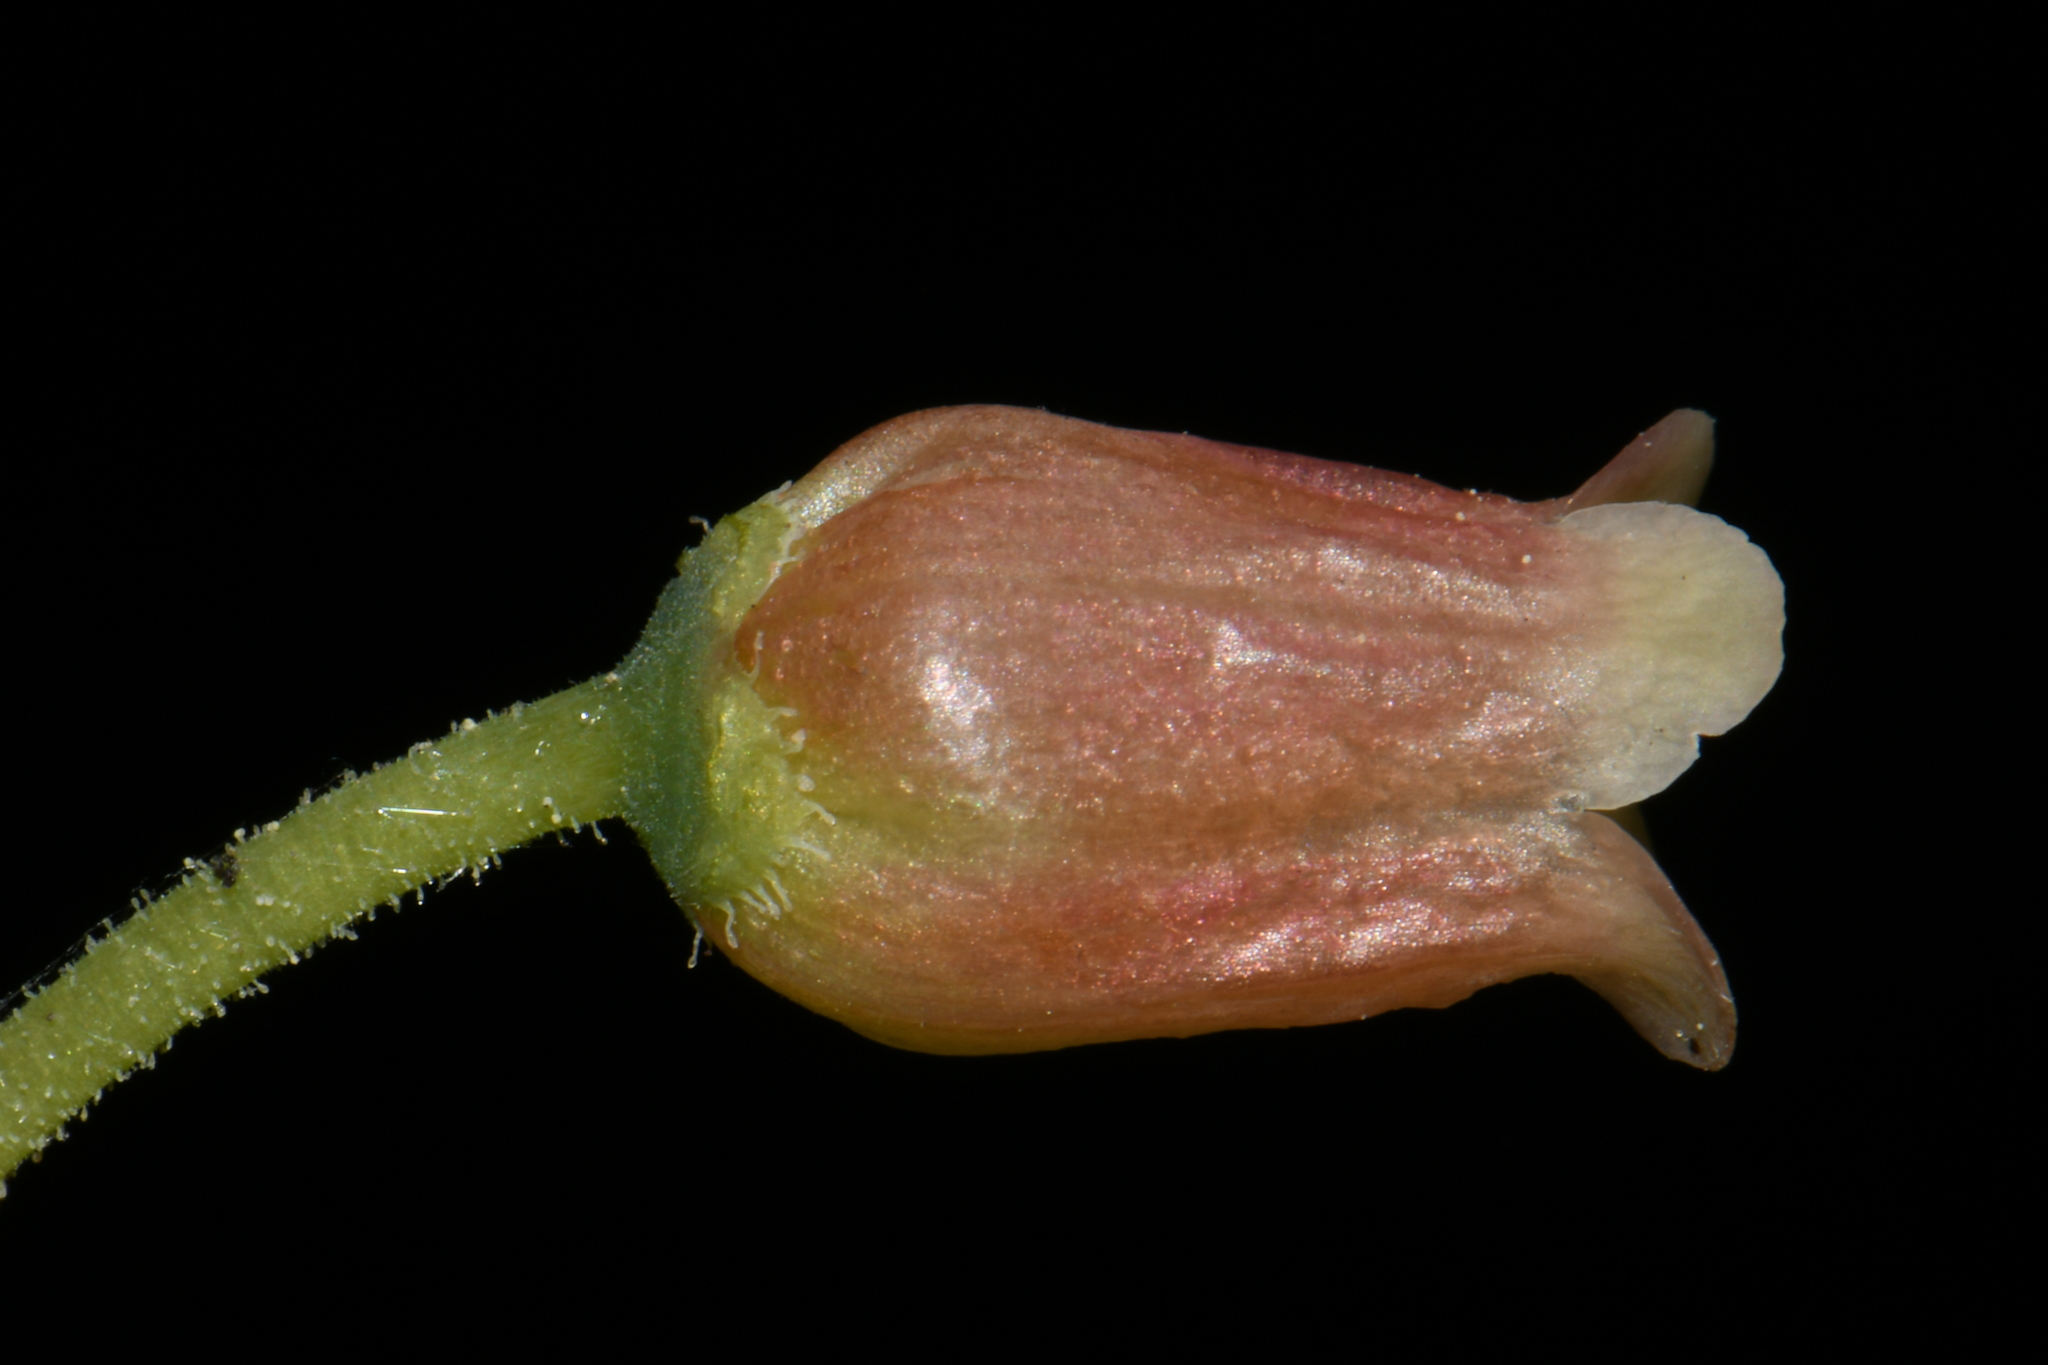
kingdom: Plantae
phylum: Tracheophyta
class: Magnoliopsida
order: Ericales
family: Ericaceae
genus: Rhododendron
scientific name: Rhododendron menziesii
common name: Pacific menziesia
